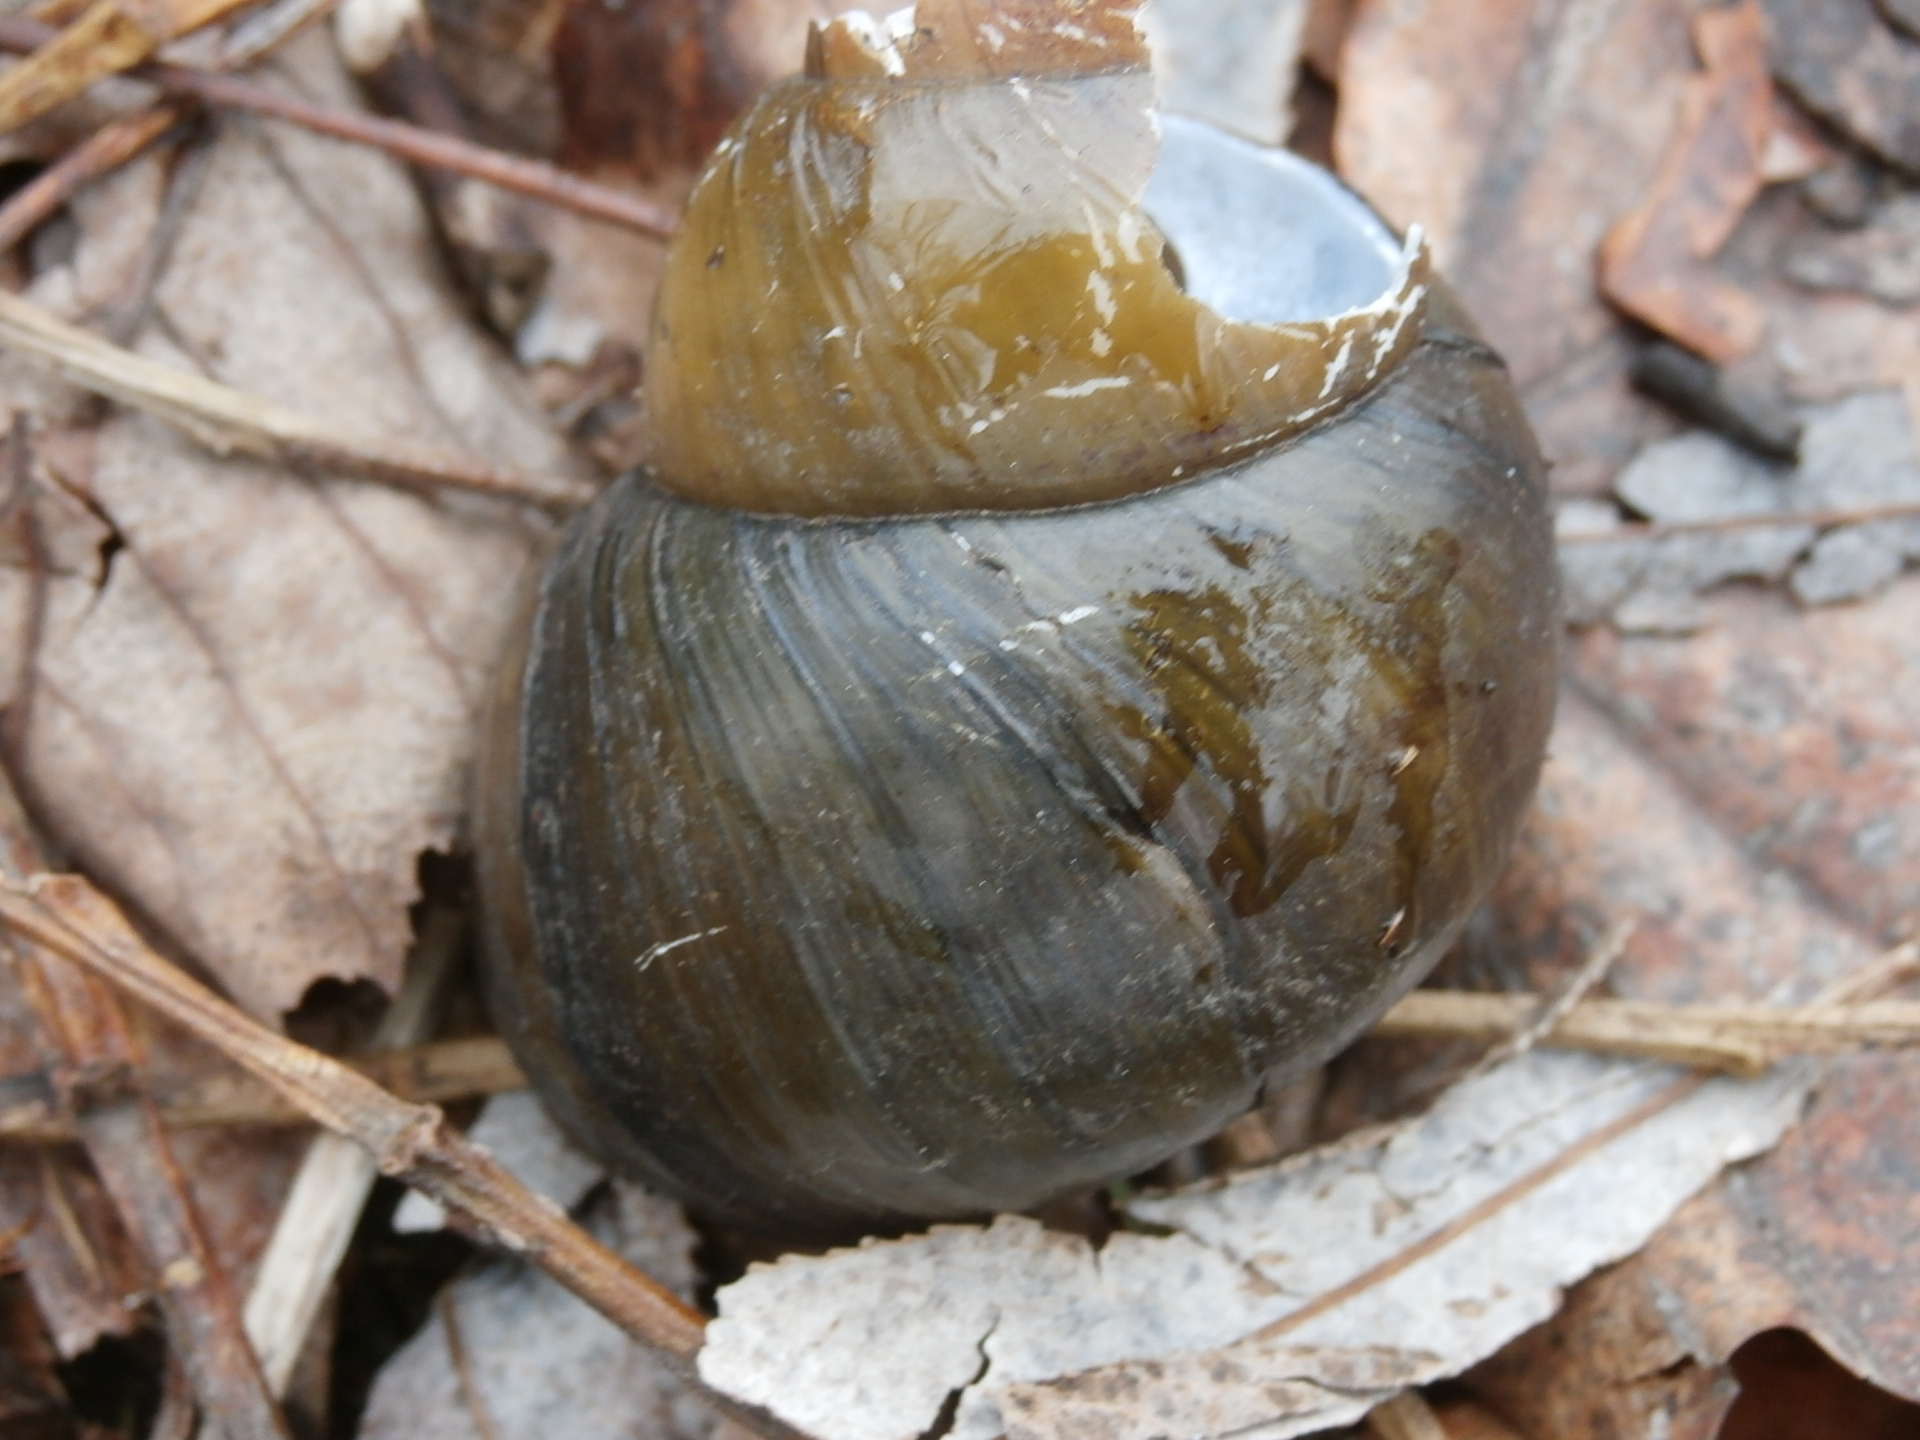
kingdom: Animalia
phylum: Mollusca
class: Gastropoda
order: Architaenioglossa
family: Viviparidae
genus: Cipangopaludina
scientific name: Cipangopaludina chinensis
